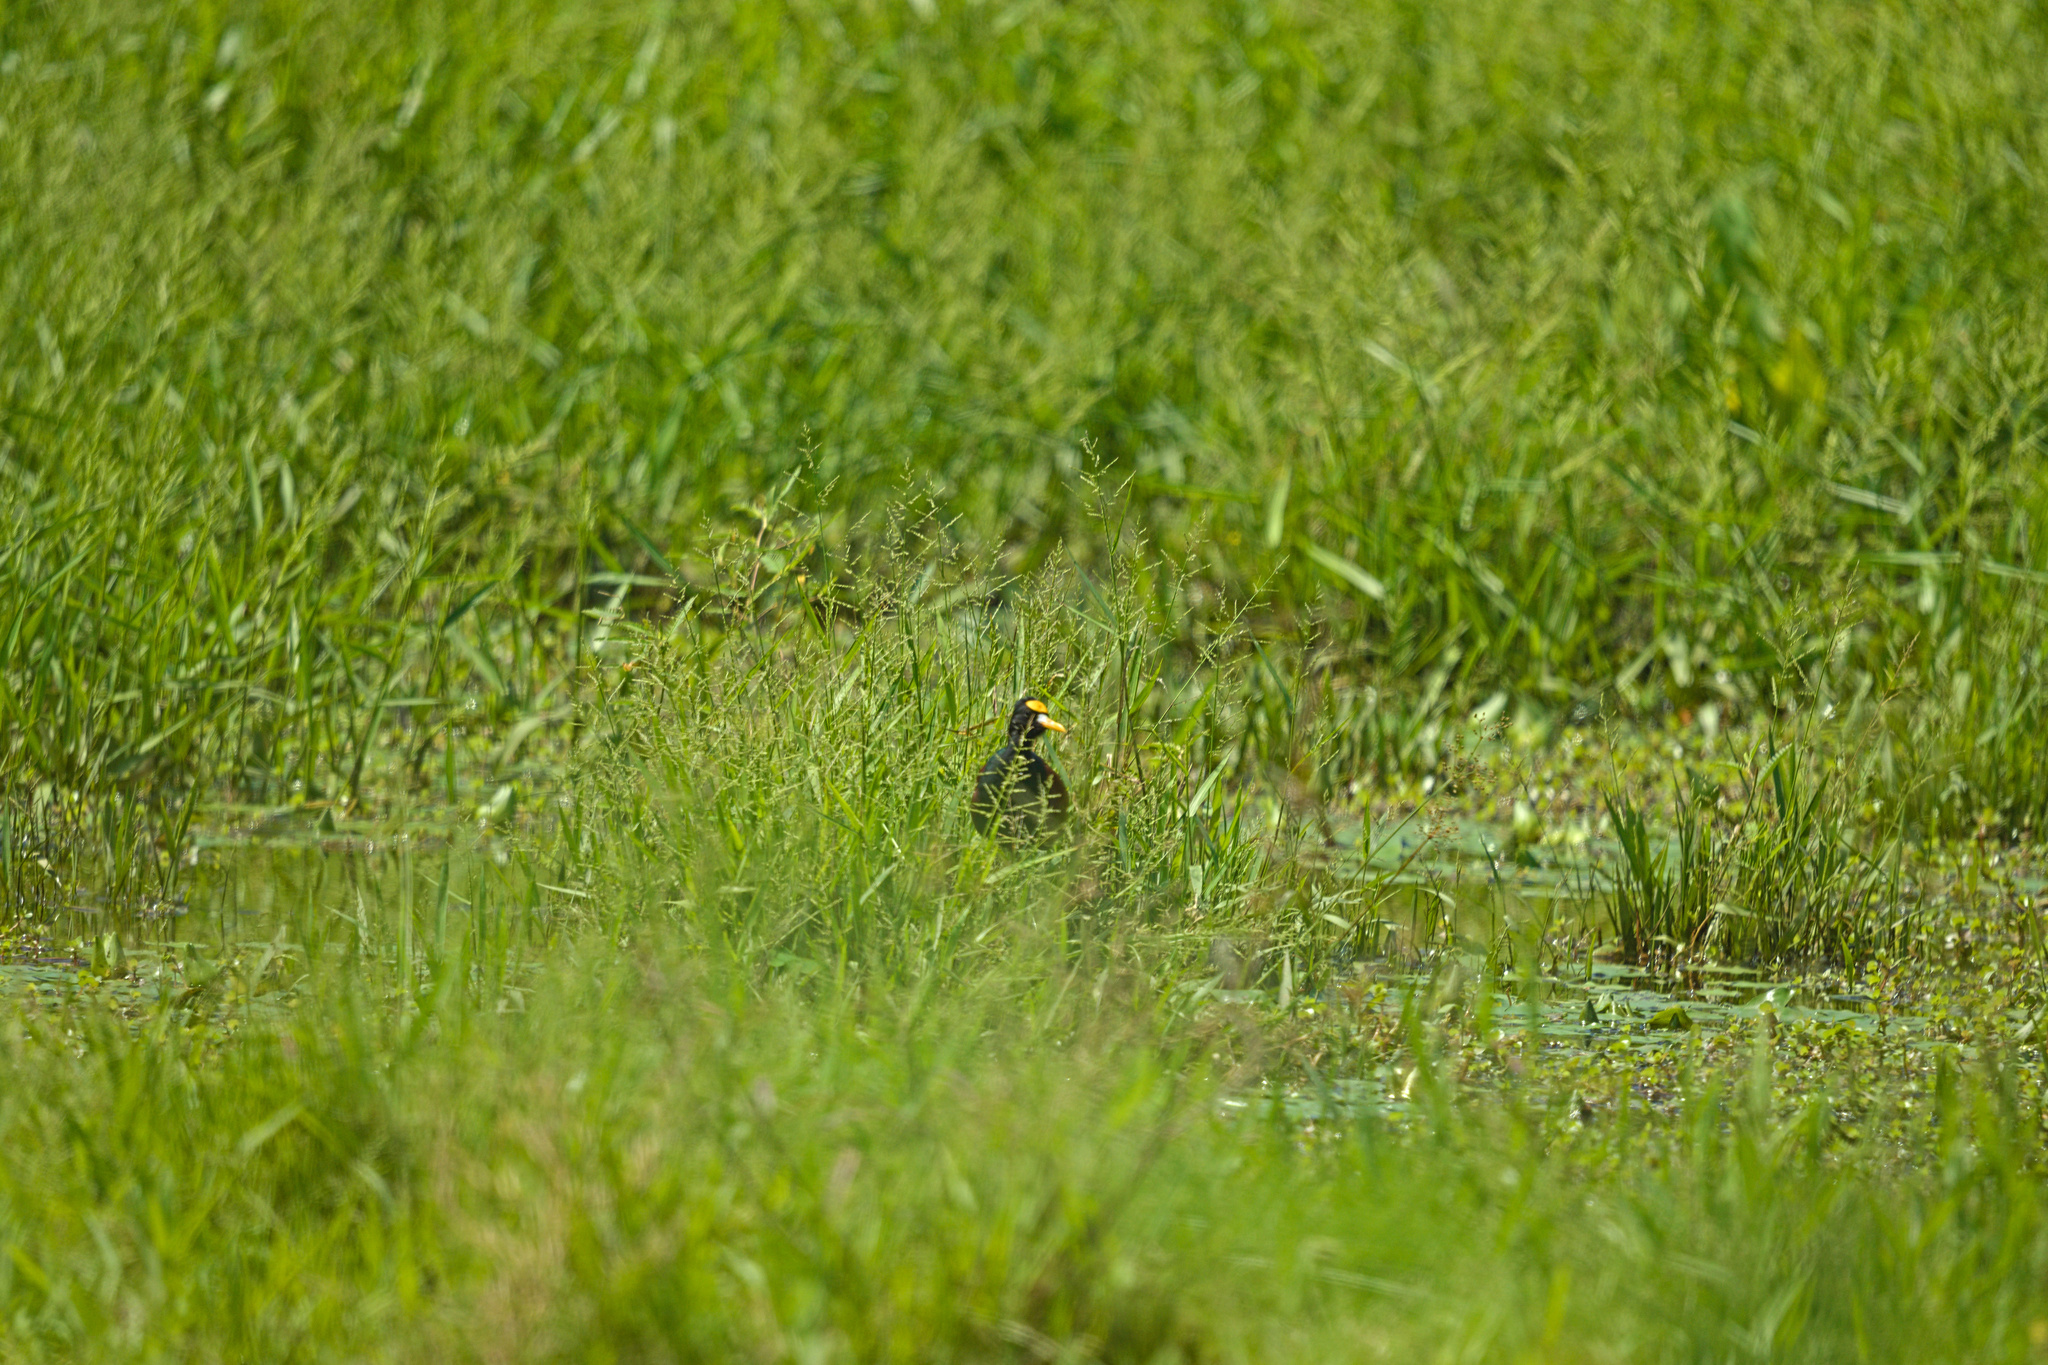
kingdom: Animalia
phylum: Chordata
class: Aves
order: Charadriiformes
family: Jacanidae
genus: Jacana
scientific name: Jacana spinosa
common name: Northern jacana
